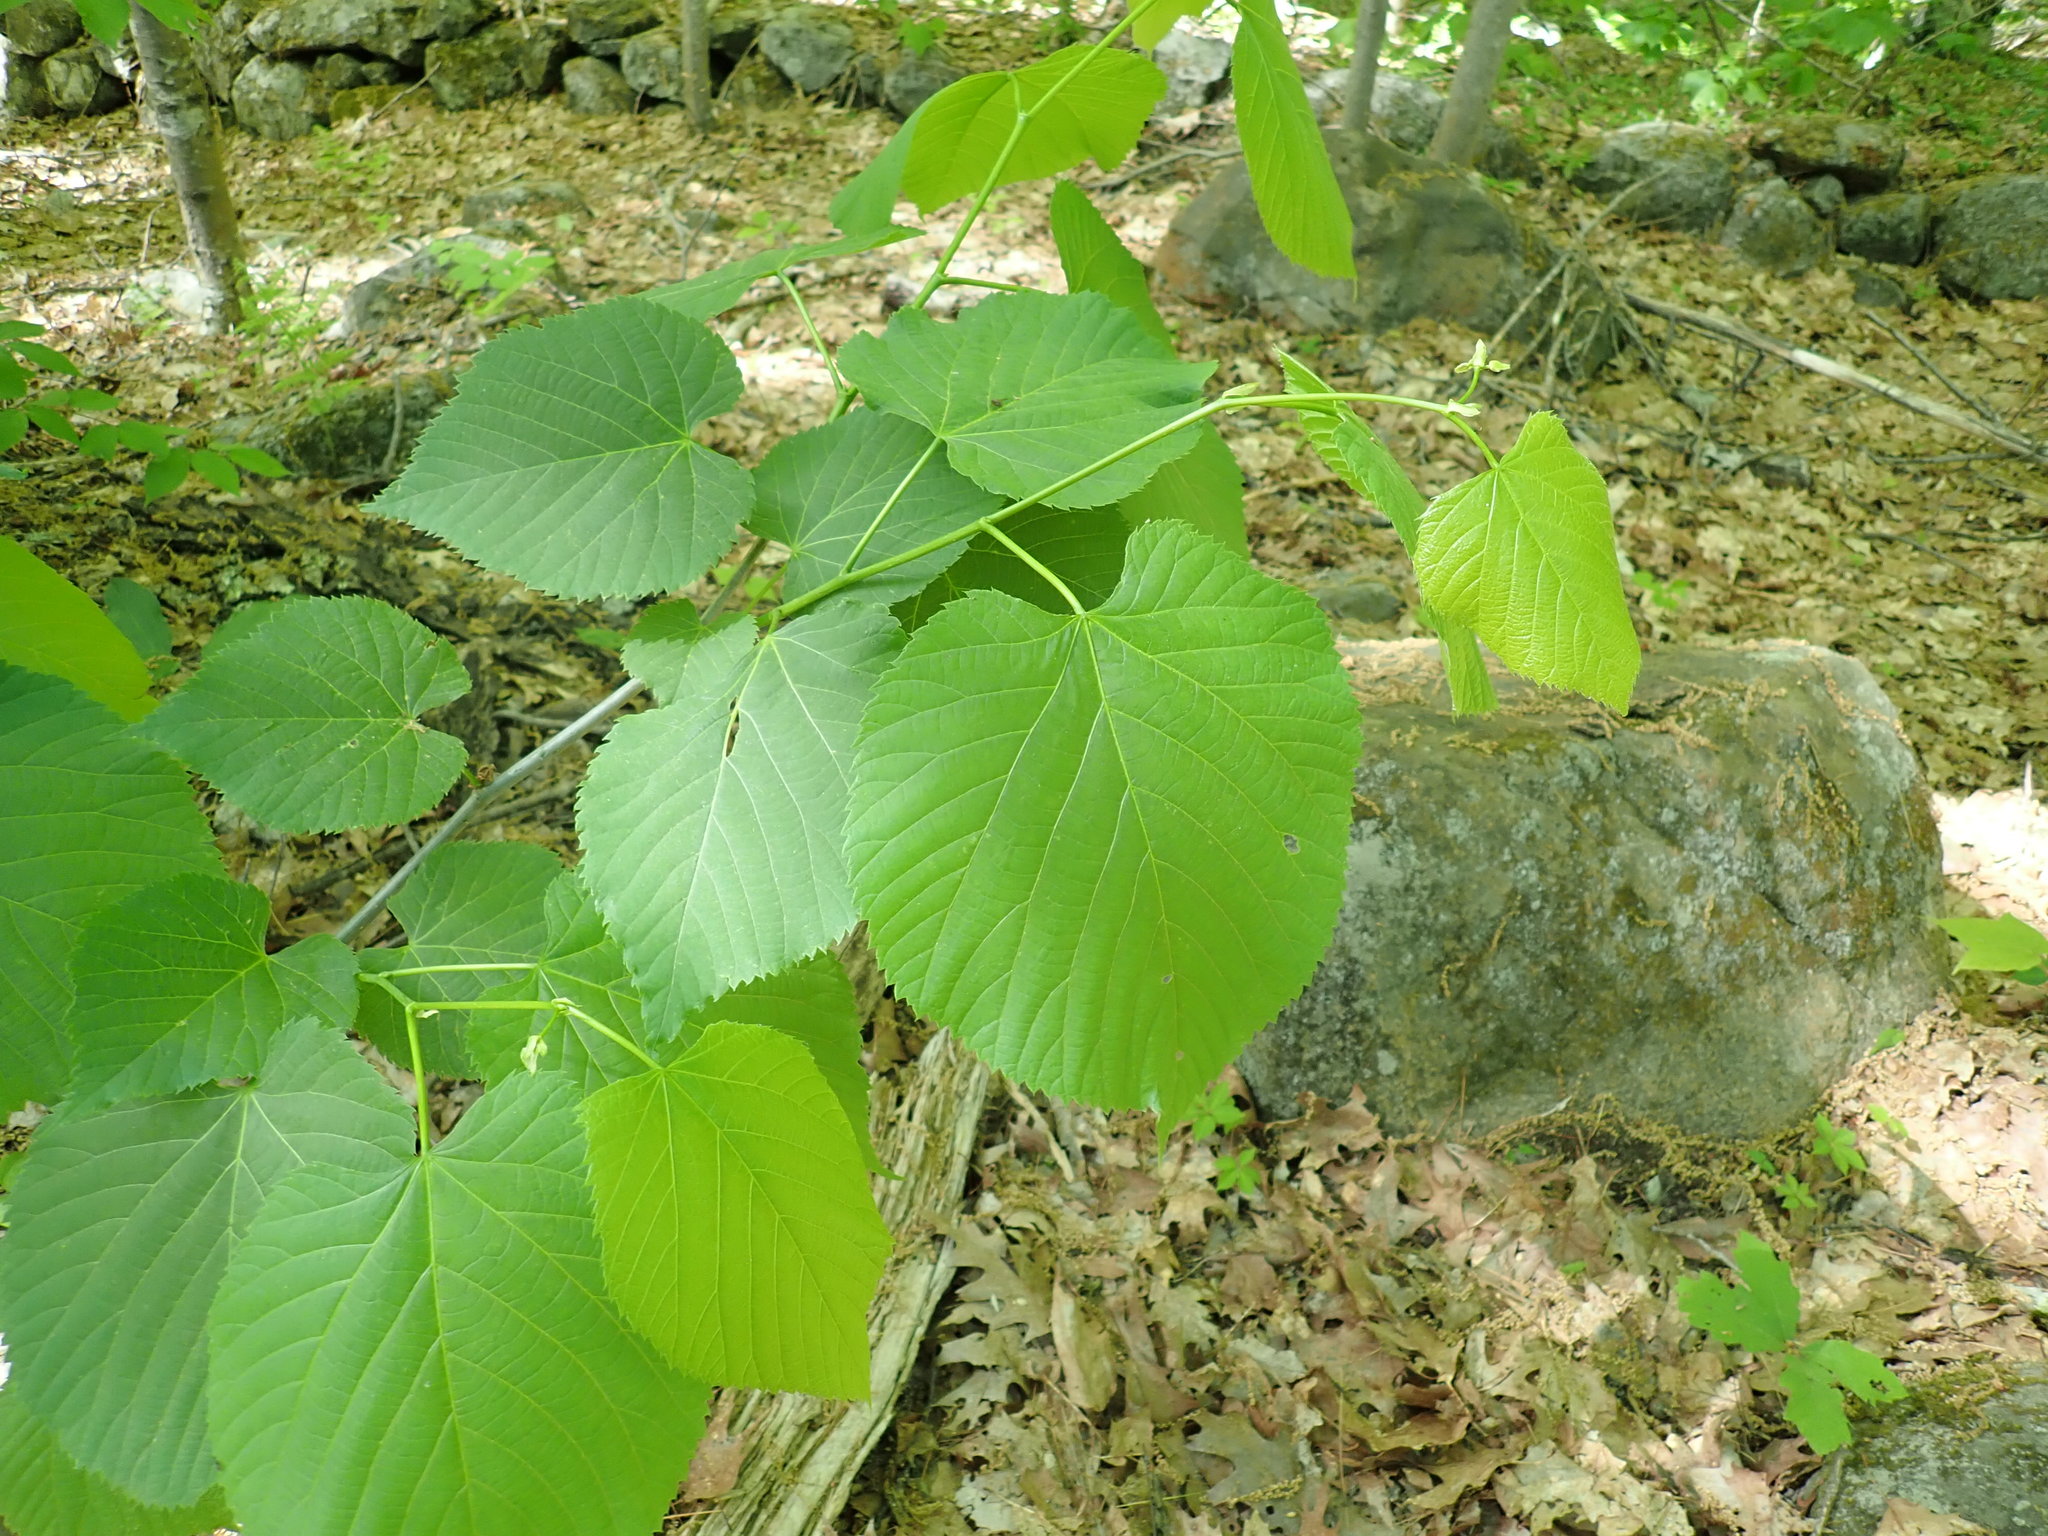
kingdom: Plantae
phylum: Tracheophyta
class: Magnoliopsida
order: Malvales
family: Malvaceae
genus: Tilia
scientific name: Tilia americana
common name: Basswood
